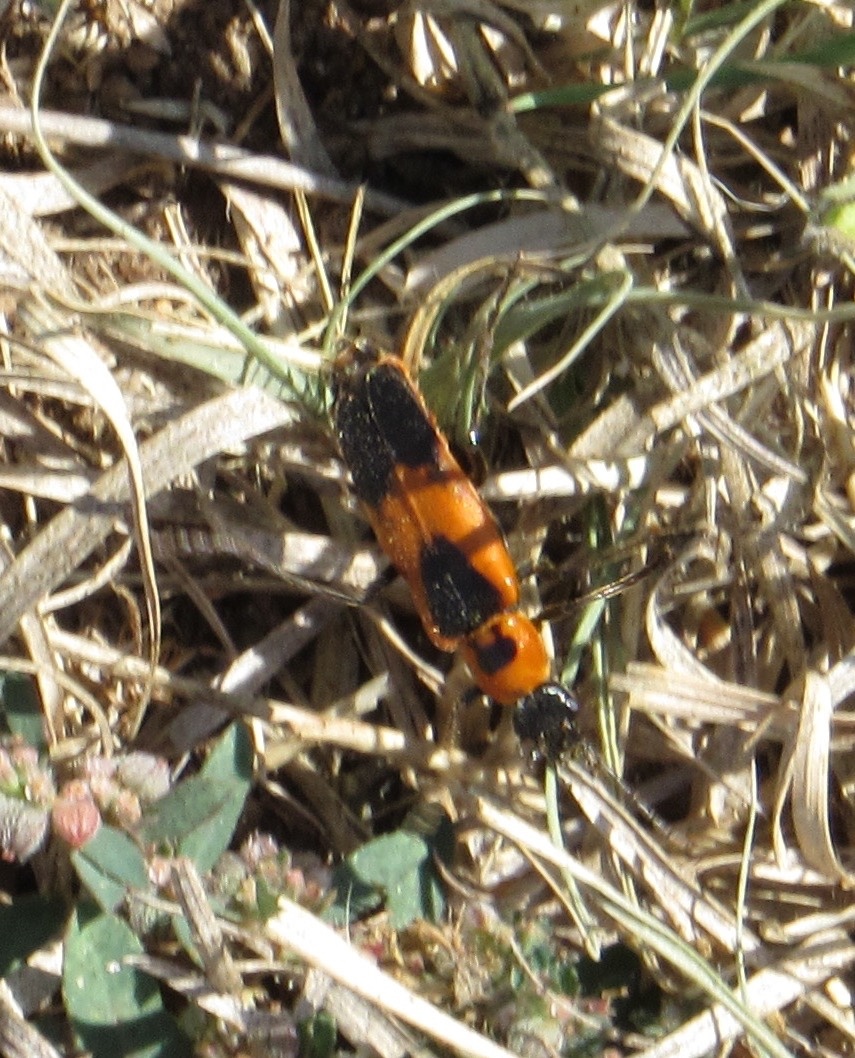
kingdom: Animalia
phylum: Arthropoda
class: Insecta
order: Coleoptera
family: Cantharidae
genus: Chauliognathus
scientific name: Chauliognathus basalis
